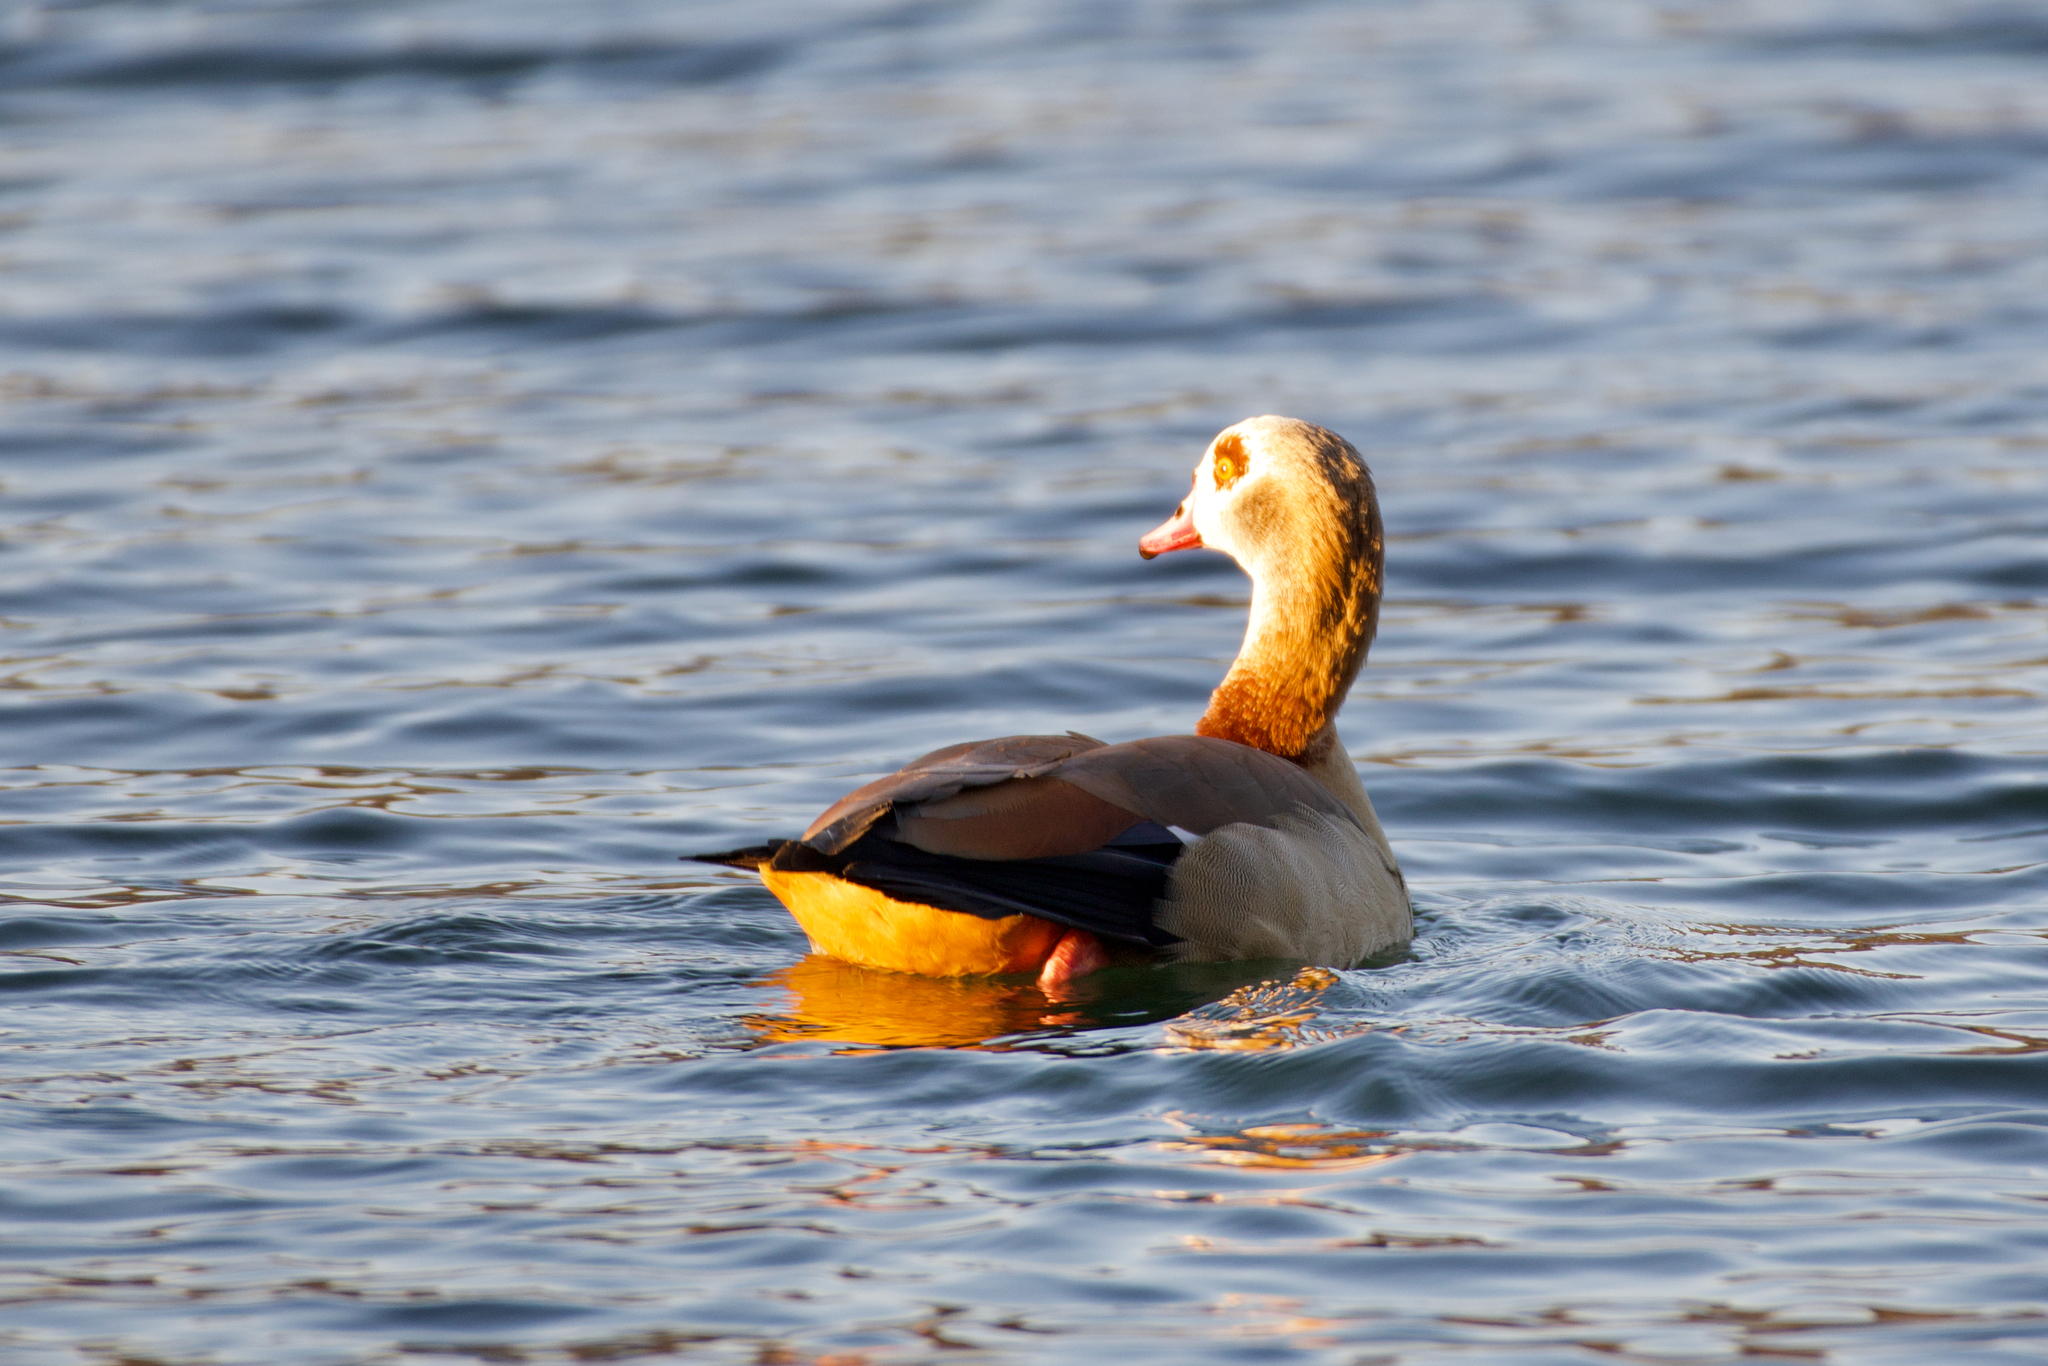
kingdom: Animalia
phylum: Chordata
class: Aves
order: Anseriformes
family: Anatidae
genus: Alopochen
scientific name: Alopochen aegyptiaca
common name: Egyptian goose
